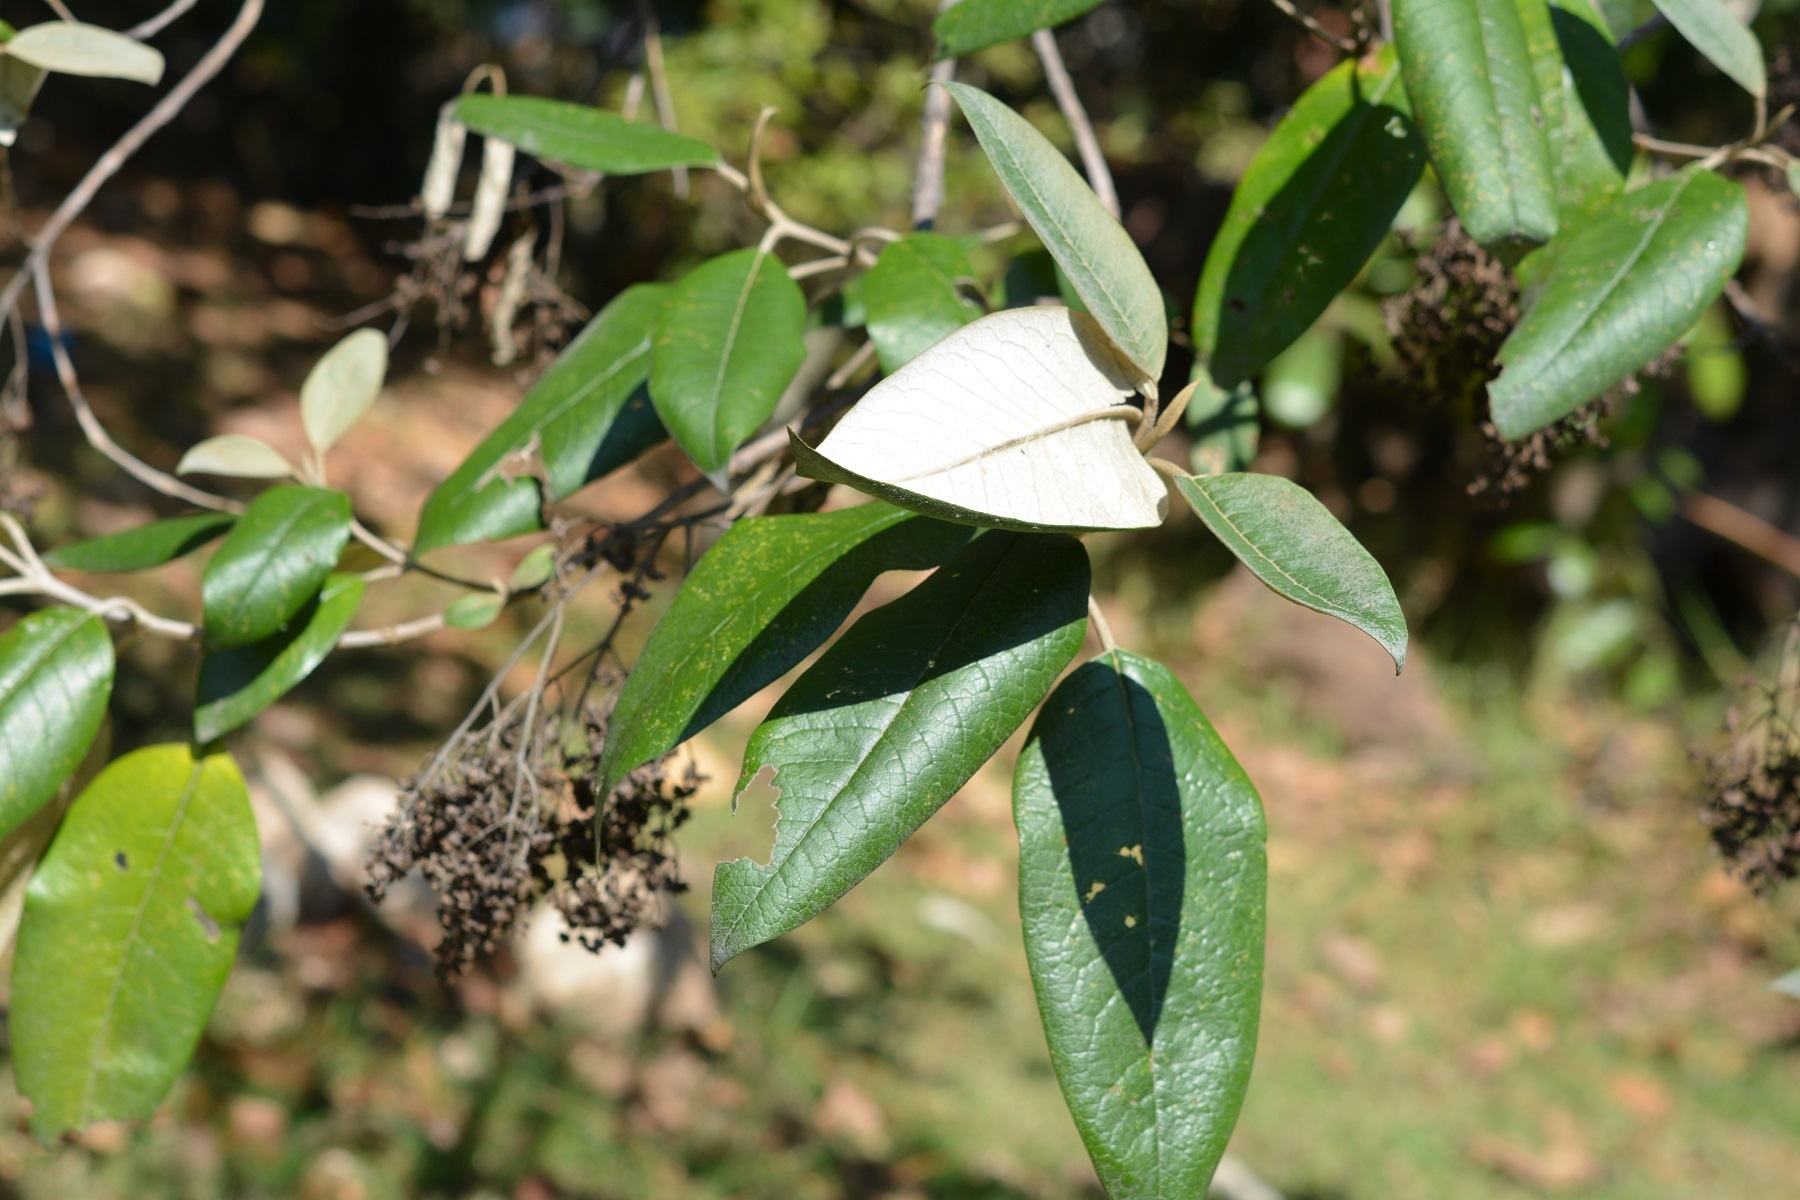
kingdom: Plantae
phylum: Tracheophyta
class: Magnoliopsida
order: Lamiales
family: Scrophulariaceae
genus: Buddleja
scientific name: Buddleja cordata
